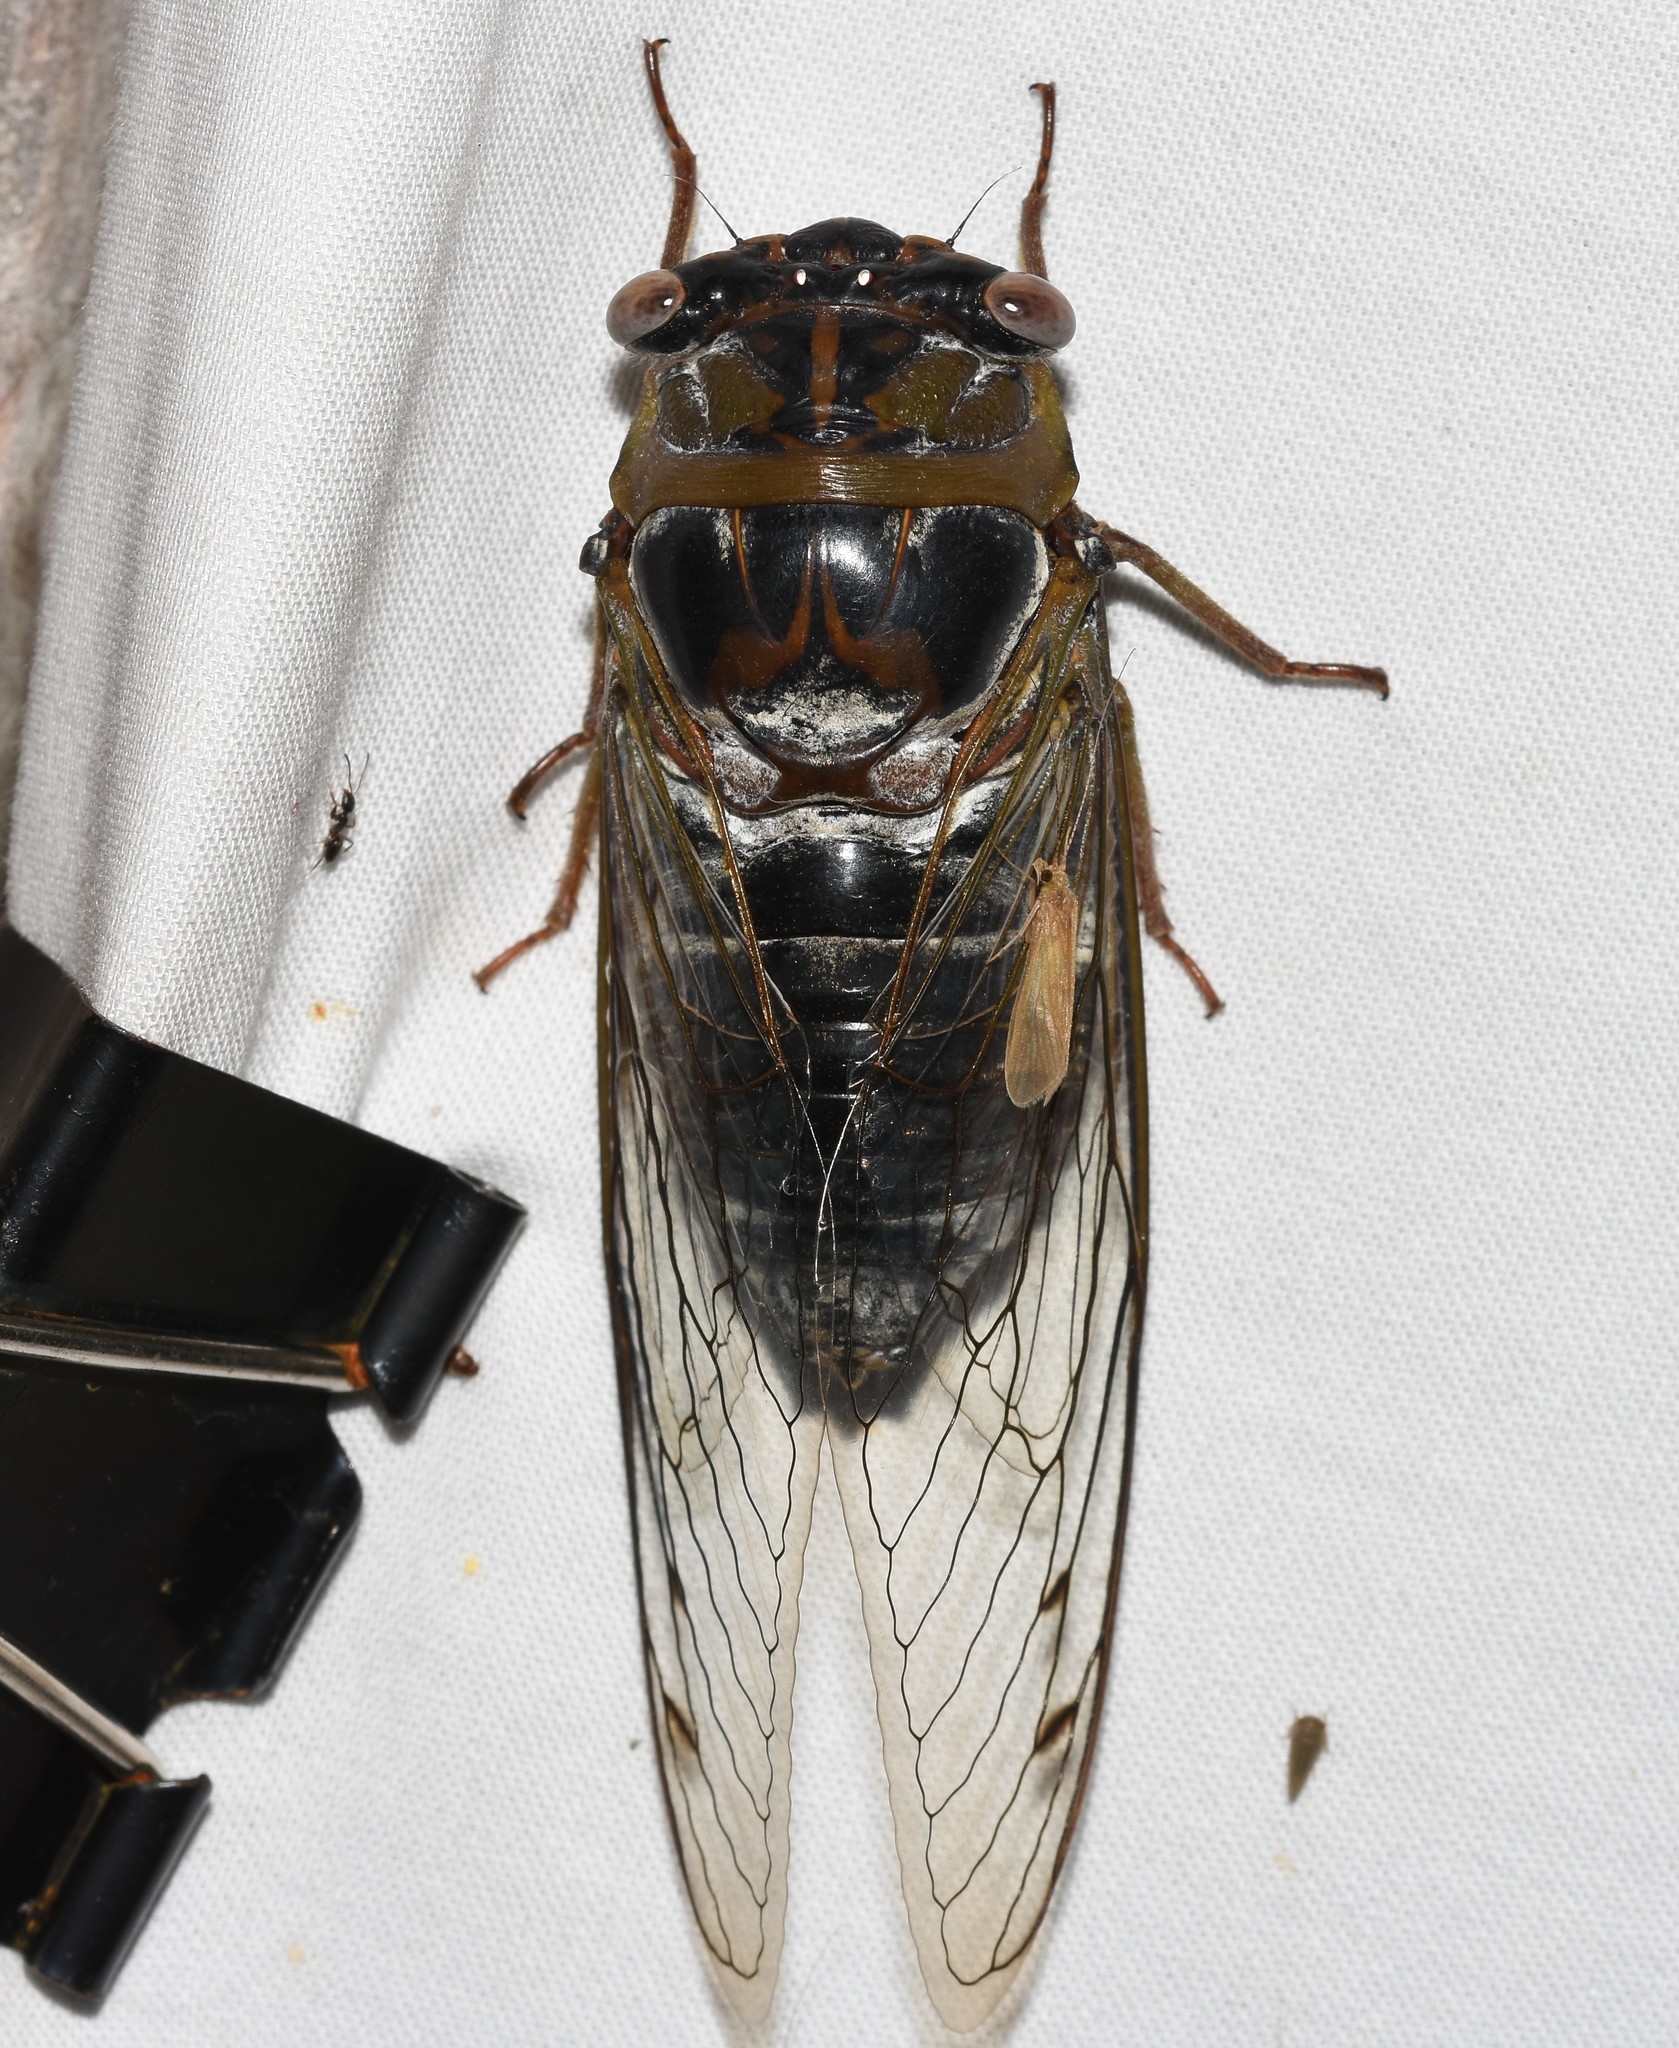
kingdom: Animalia
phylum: Arthropoda
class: Insecta
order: Hemiptera
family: Cicadidae
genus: Diceroprocta
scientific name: Diceroprocta grossa
